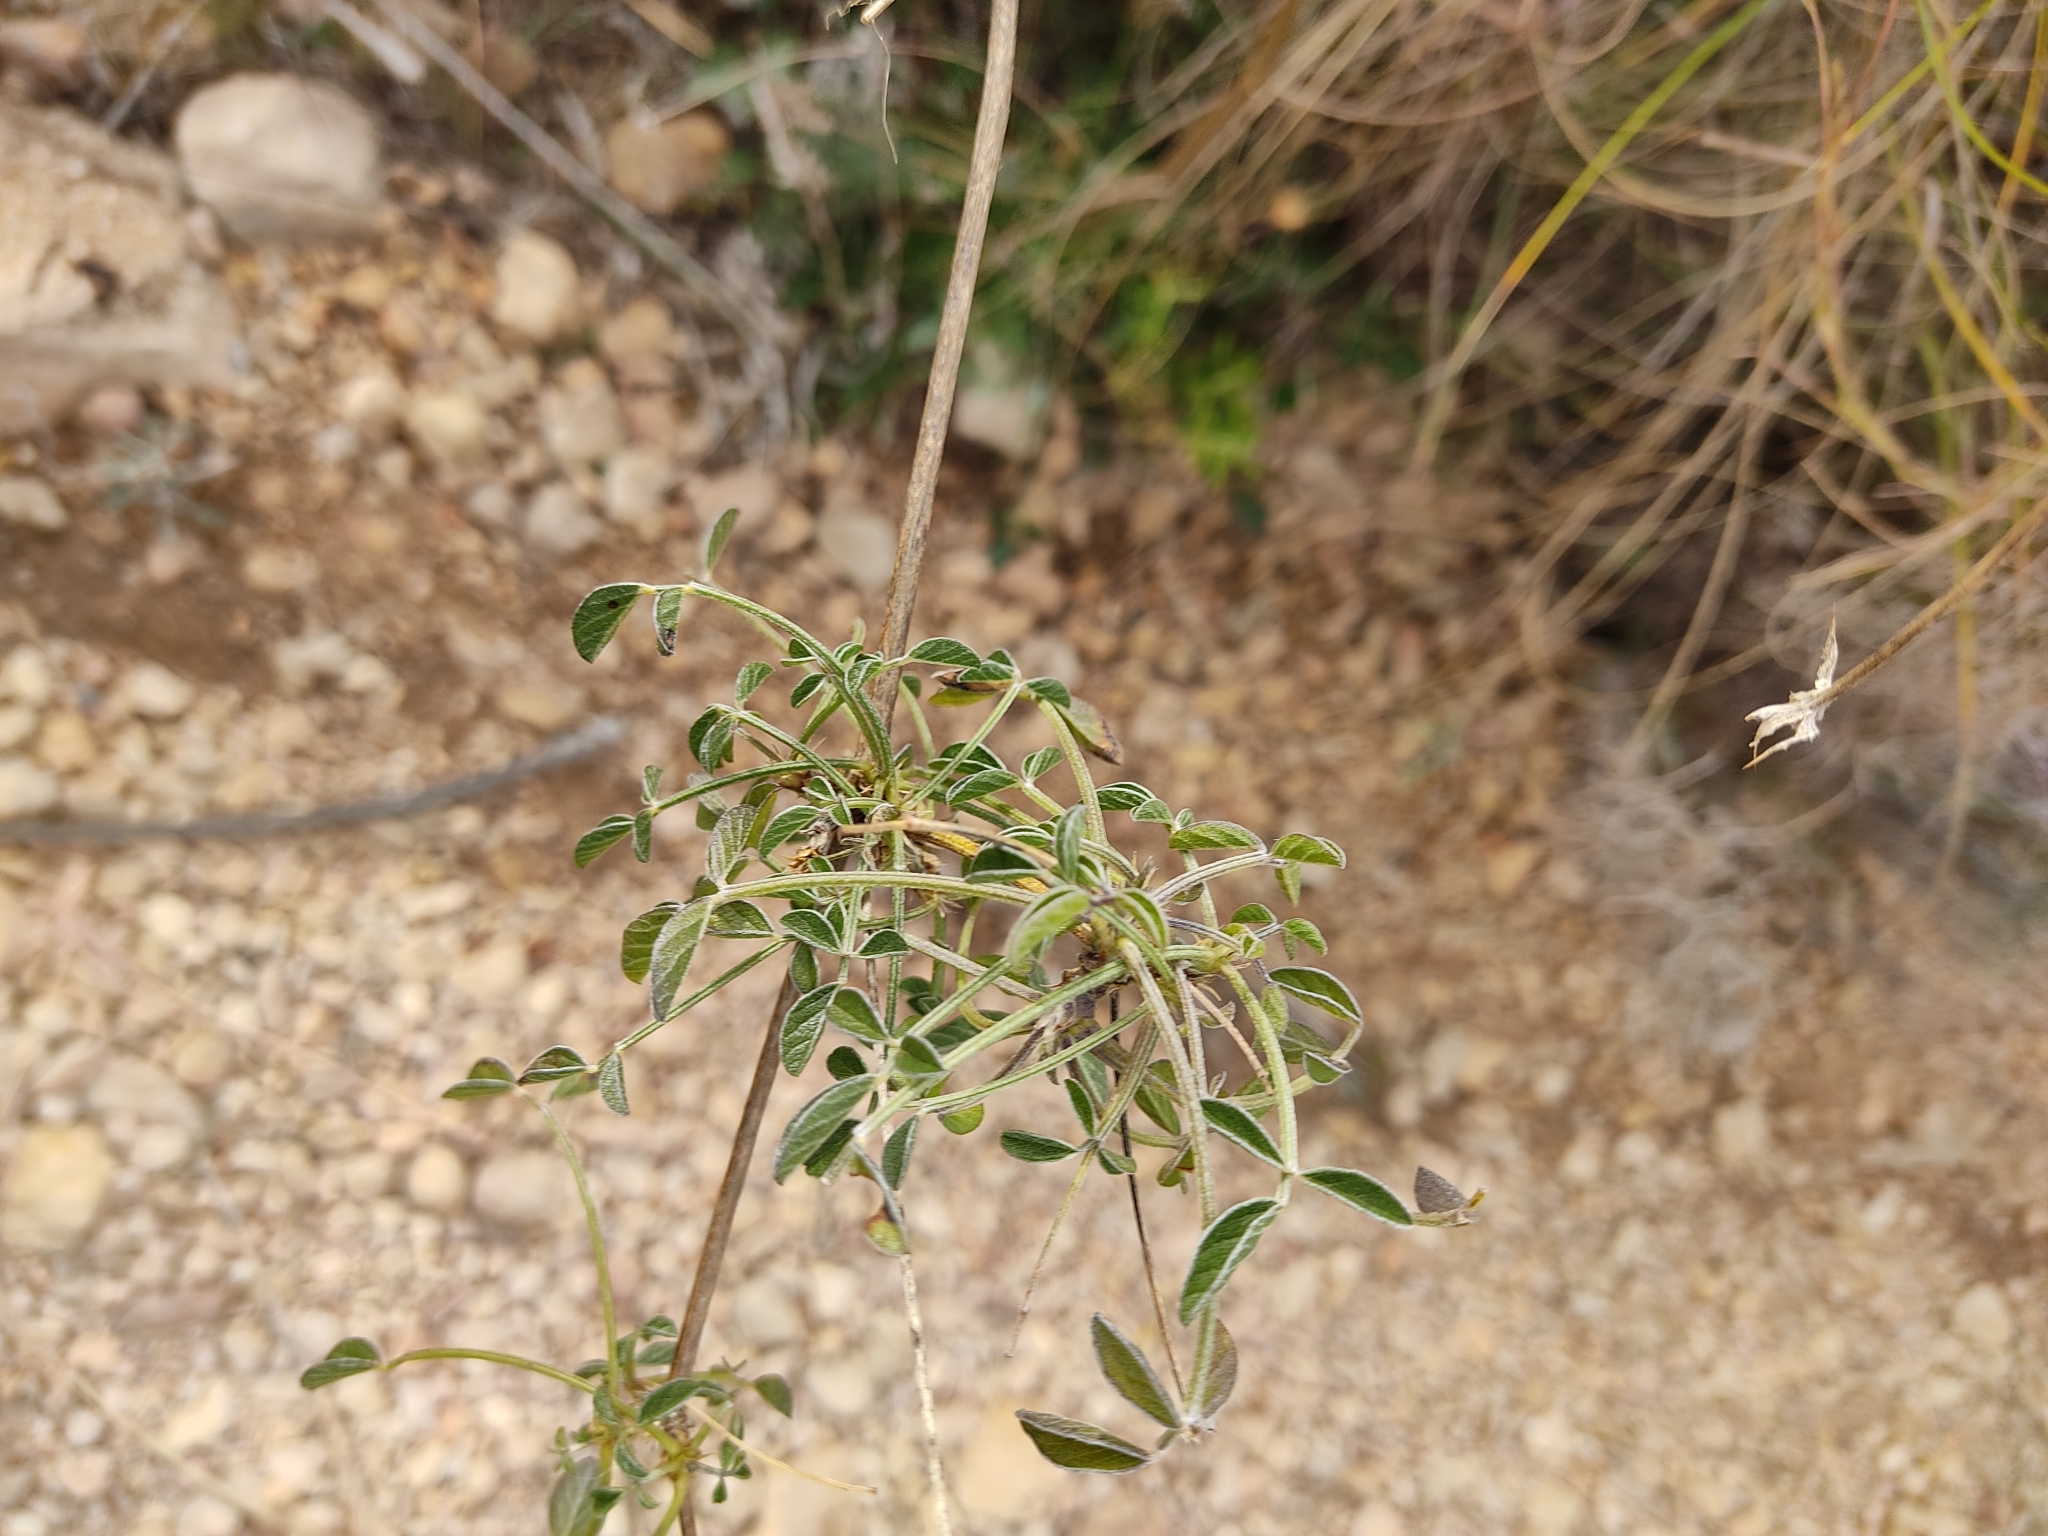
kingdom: Plantae
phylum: Tracheophyta
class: Magnoliopsida
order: Fabales
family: Fabaceae
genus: Bituminaria
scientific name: Bituminaria bituminosa
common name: Arabian pea
